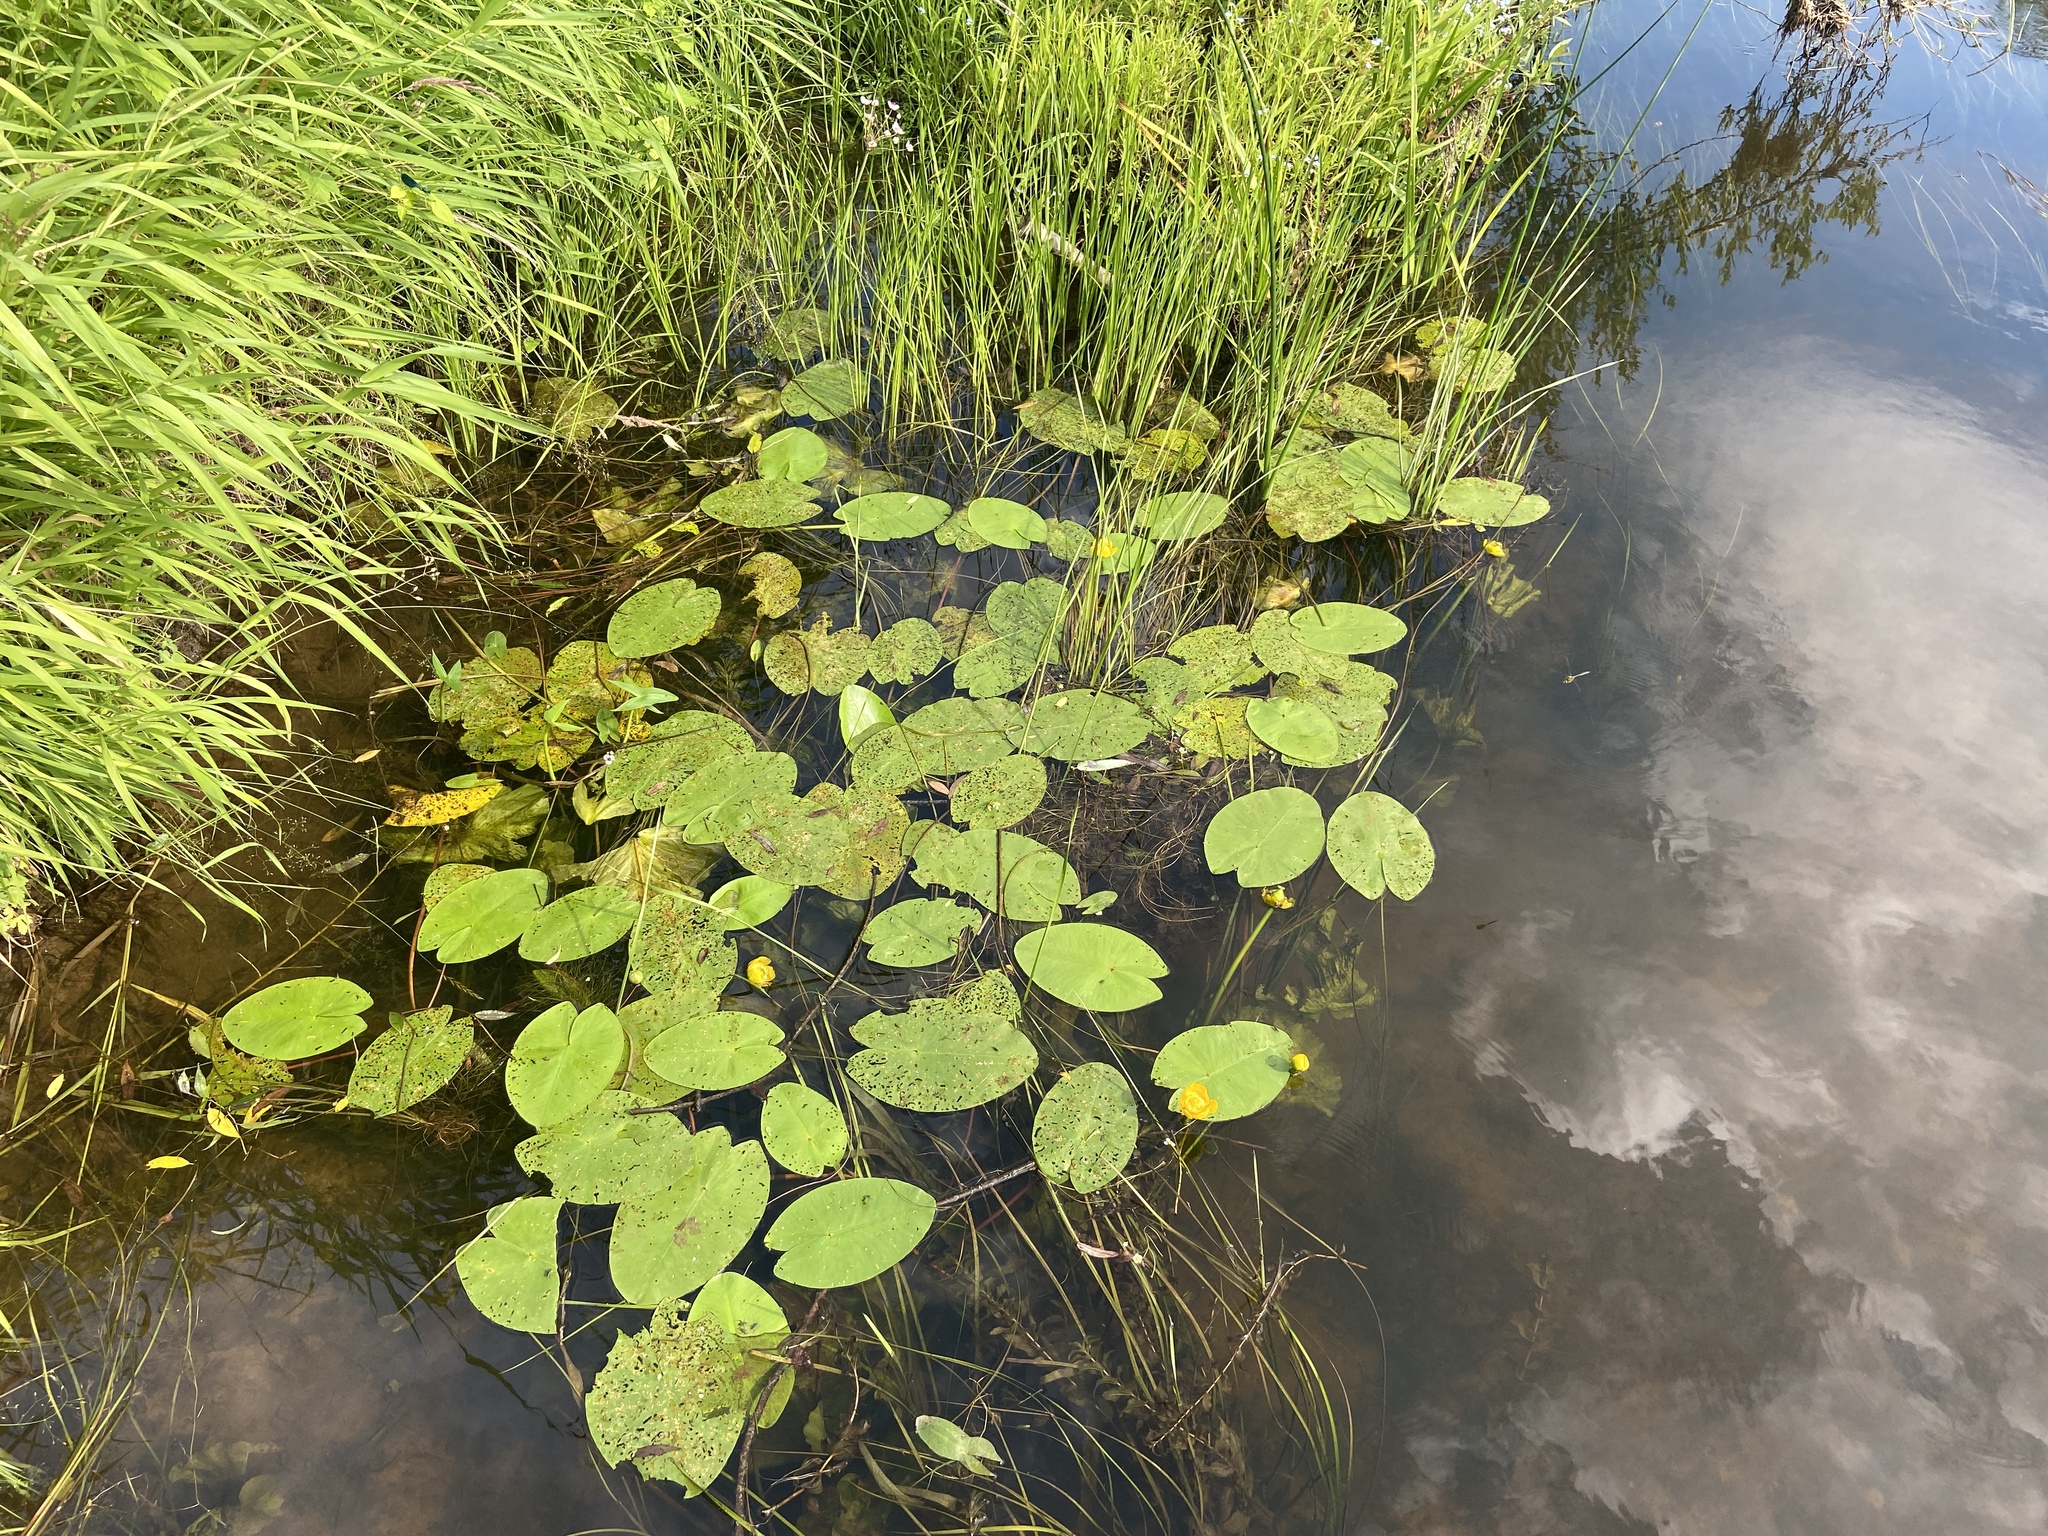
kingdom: Plantae
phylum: Tracheophyta
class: Magnoliopsida
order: Nymphaeales
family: Nymphaeaceae
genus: Nuphar
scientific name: Nuphar lutea
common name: Yellow water-lily
